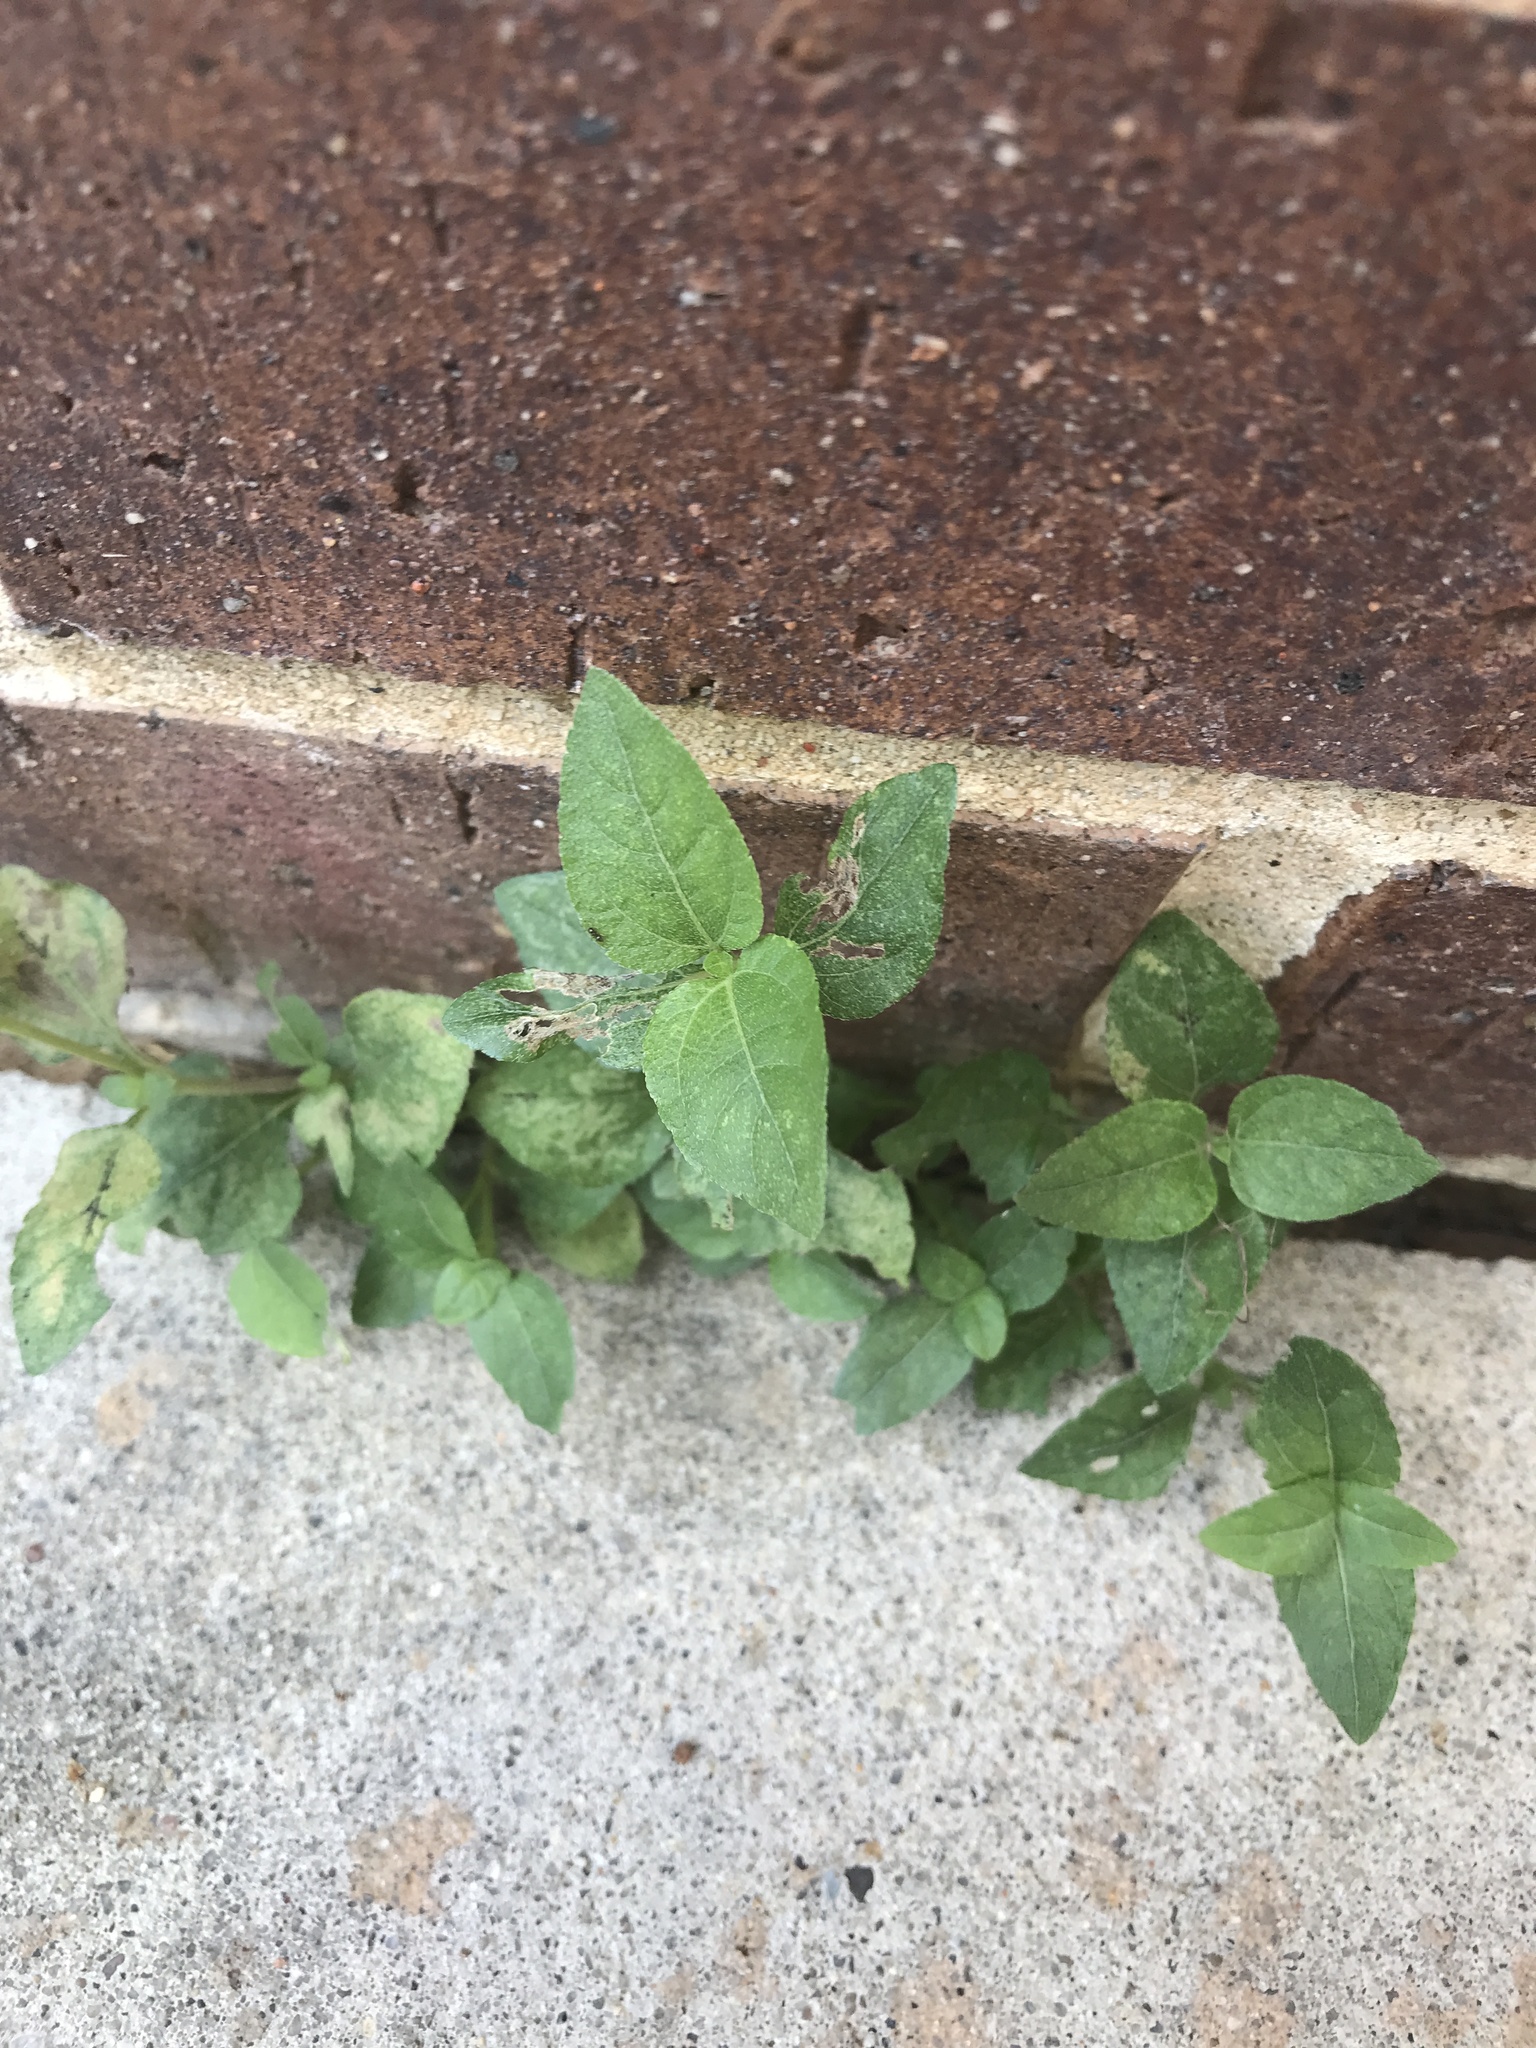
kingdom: Plantae
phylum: Tracheophyta
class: Magnoliopsida
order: Asterales
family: Asteraceae
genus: Calyptocarpus
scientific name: Calyptocarpus vialis
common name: Straggler daisy
